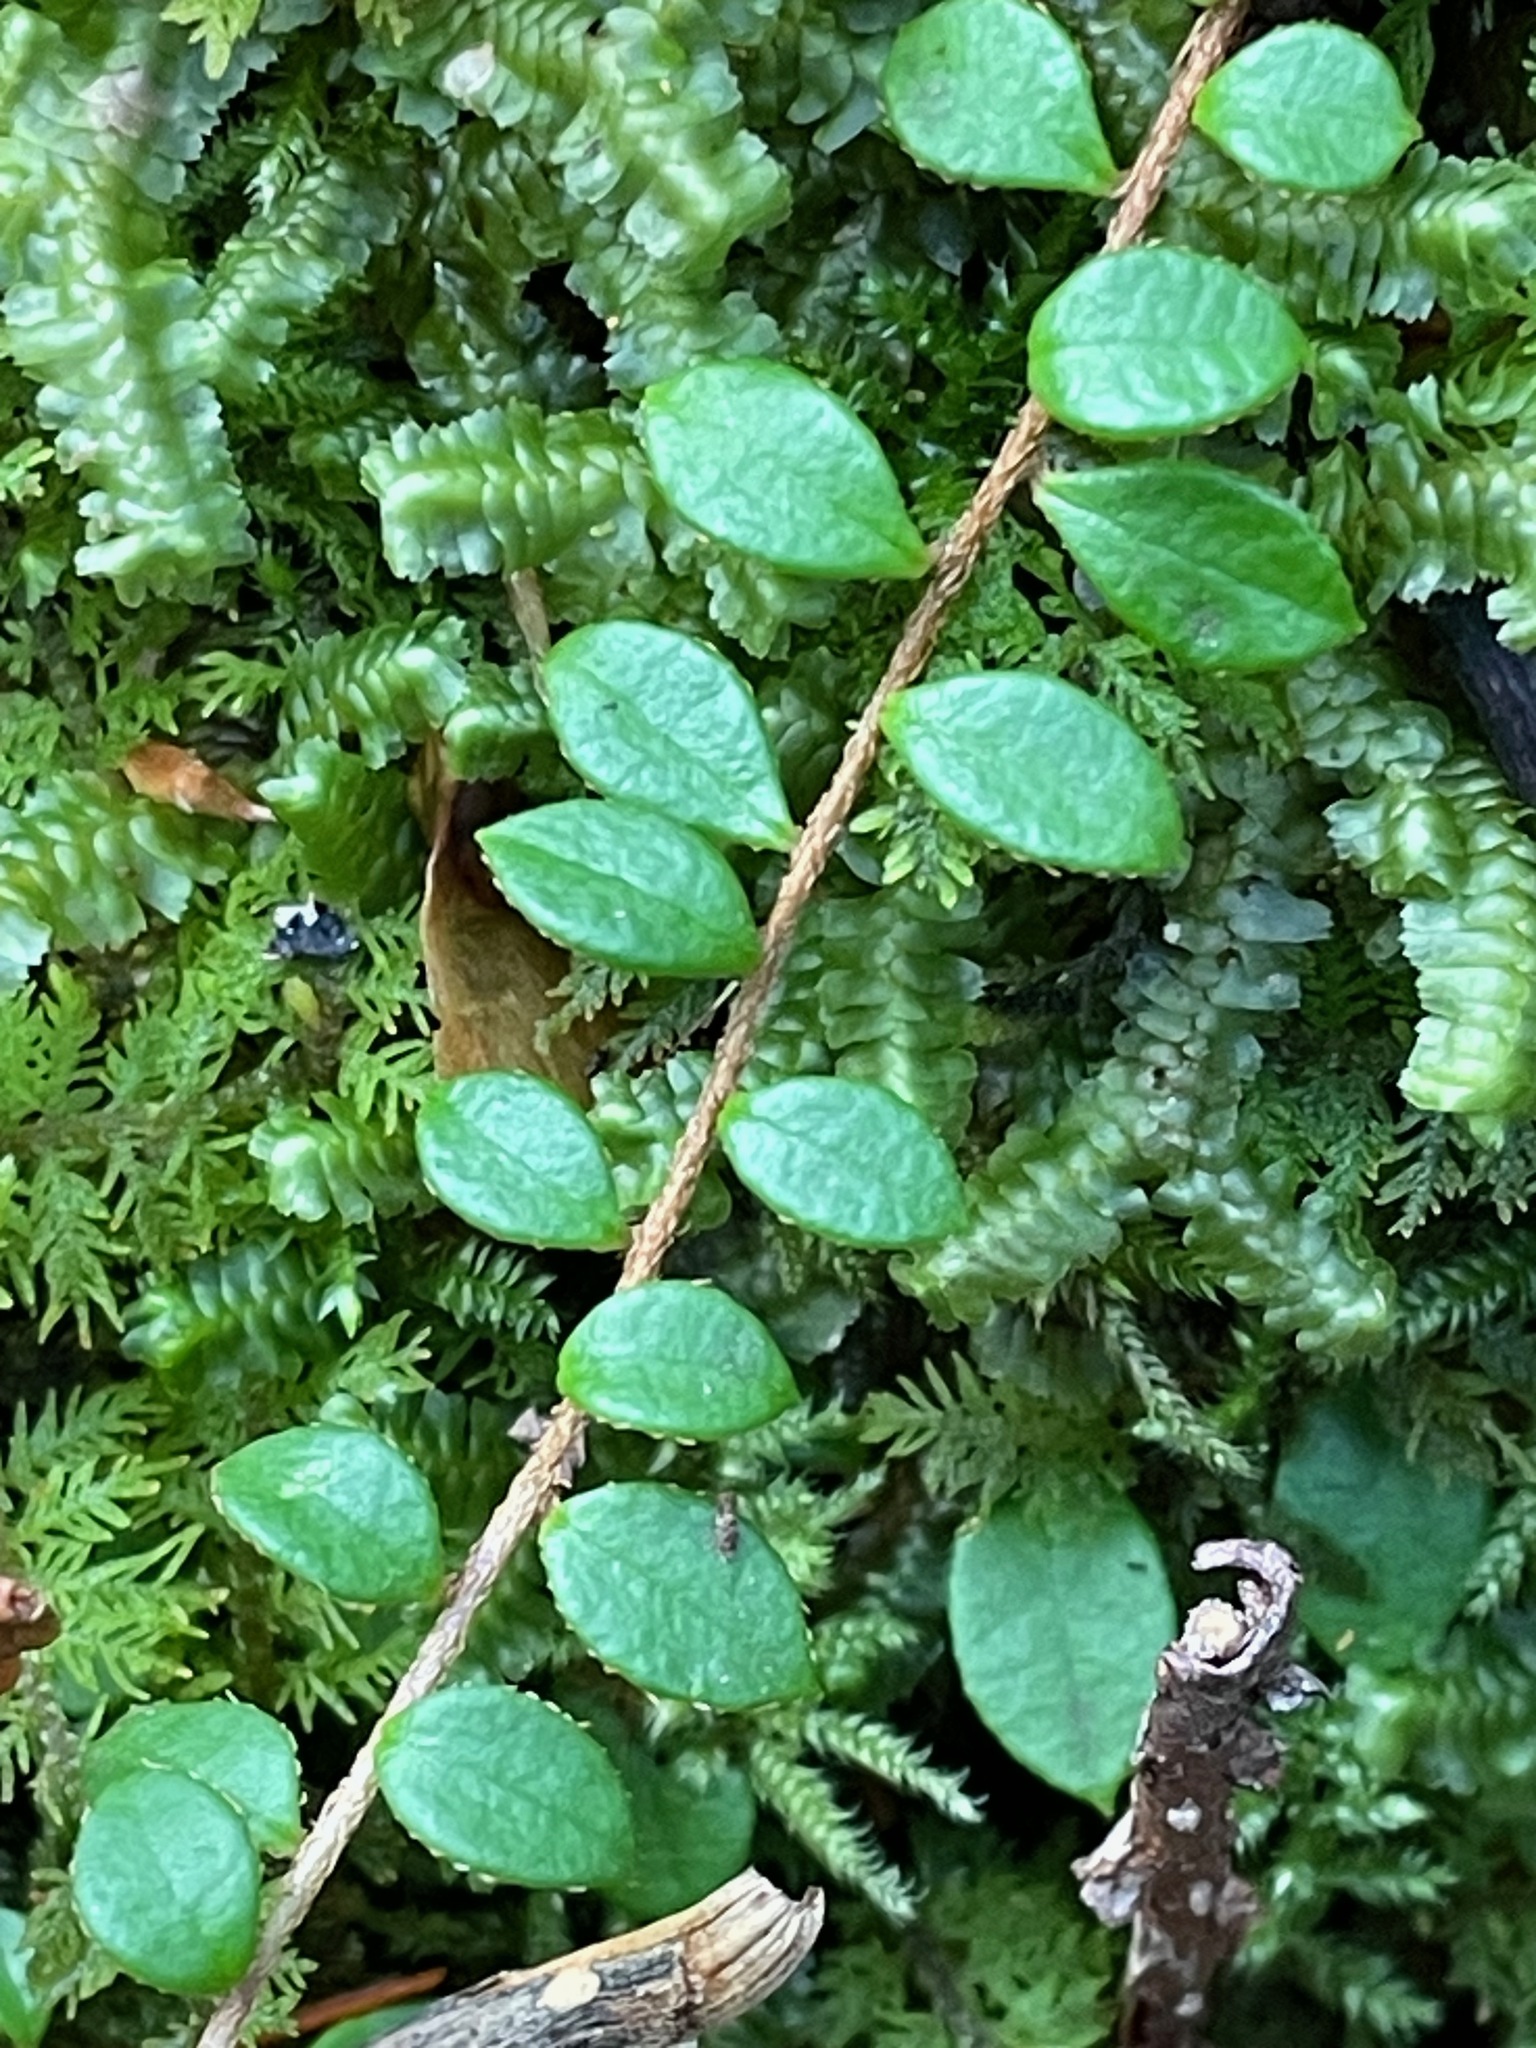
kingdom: Plantae
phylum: Tracheophyta
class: Magnoliopsida
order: Ericales
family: Ericaceae
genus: Gaultheria
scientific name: Gaultheria hispidula
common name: Cancer wintergreen
